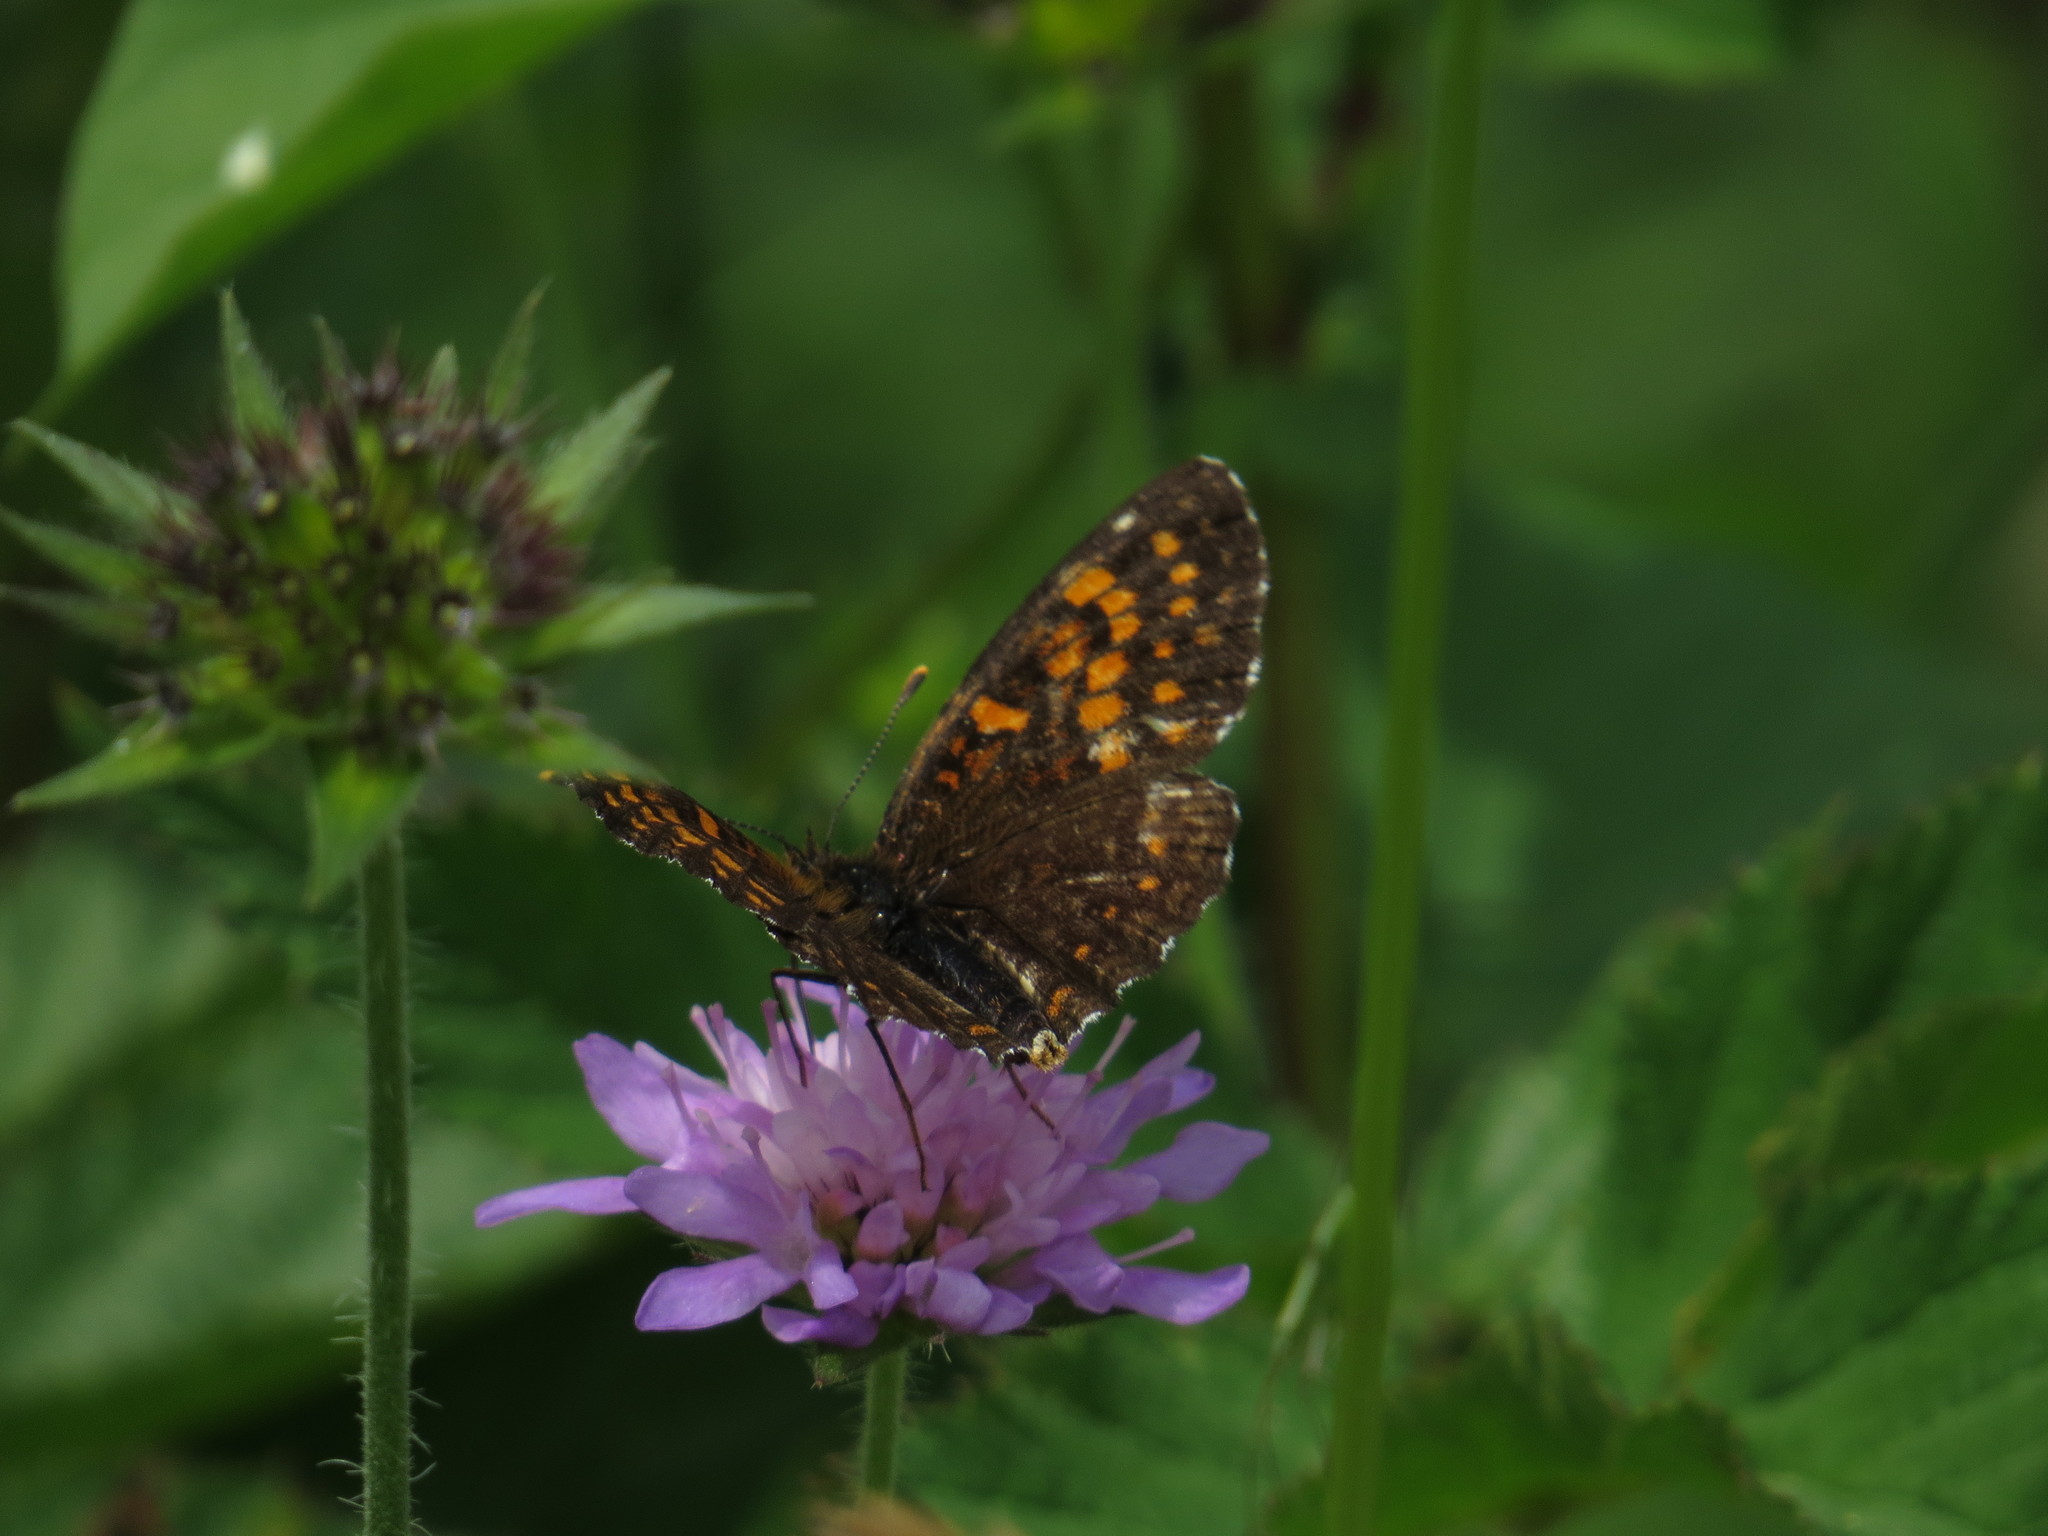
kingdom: Animalia
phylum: Arthropoda
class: Insecta
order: Lepidoptera
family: Nymphalidae
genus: Melitaea
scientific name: Melitaea diamina
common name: False heath fritillary
